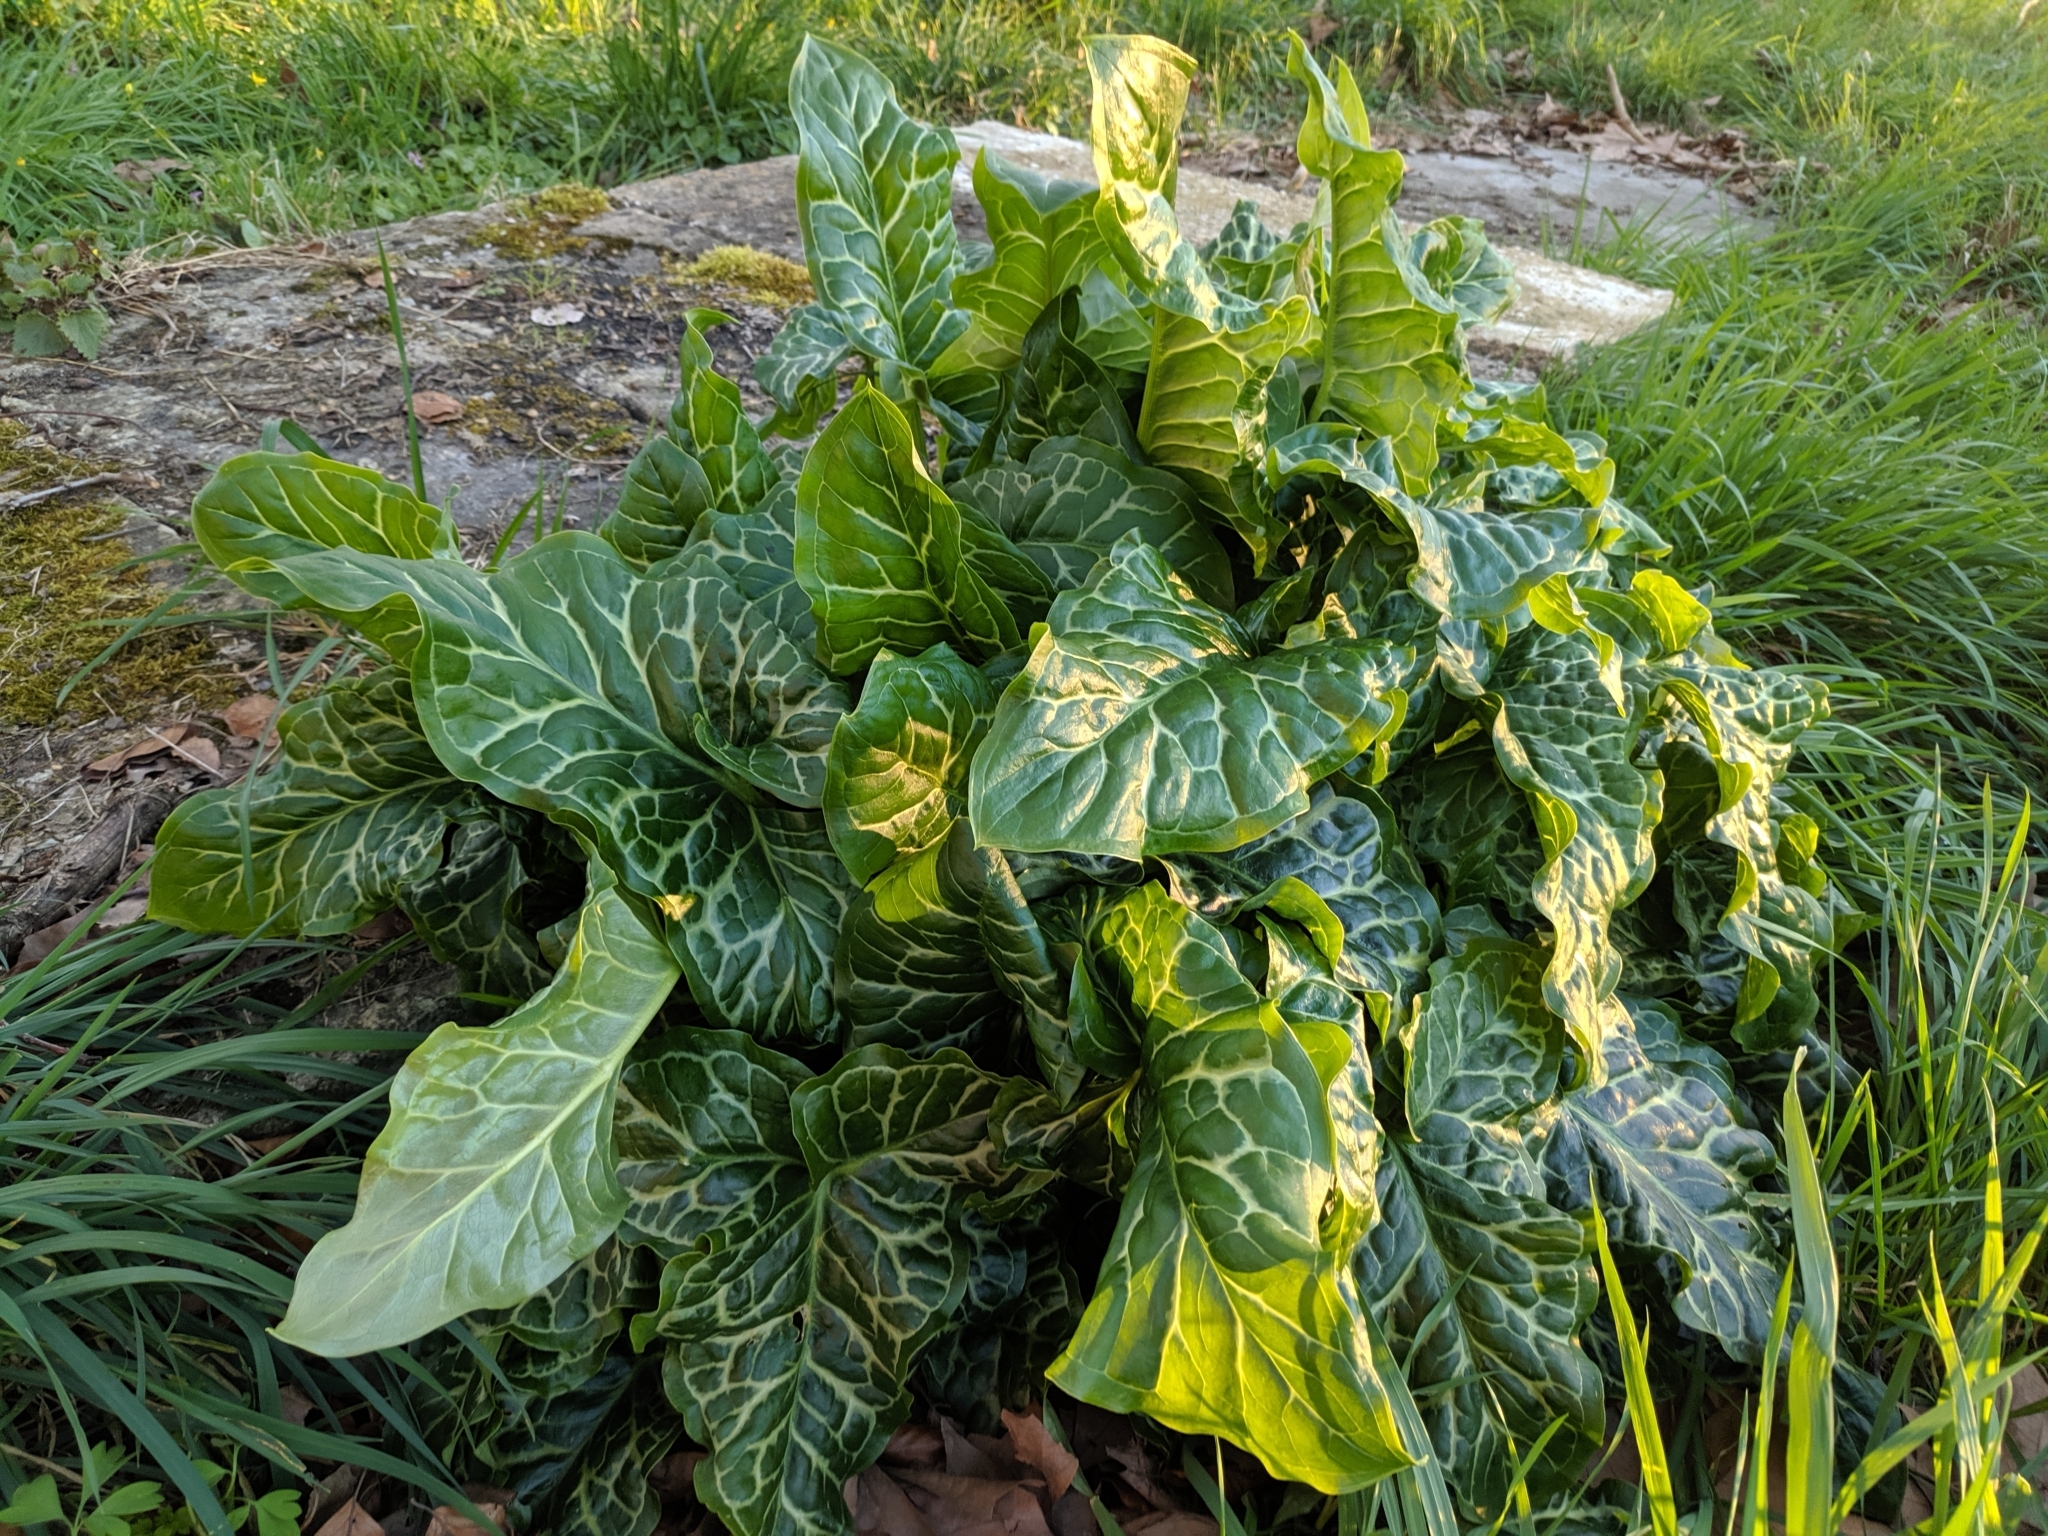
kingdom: Plantae
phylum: Tracheophyta
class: Liliopsida
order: Alismatales
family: Araceae
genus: Arum
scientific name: Arum italicum
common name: Italian lords-and-ladies
